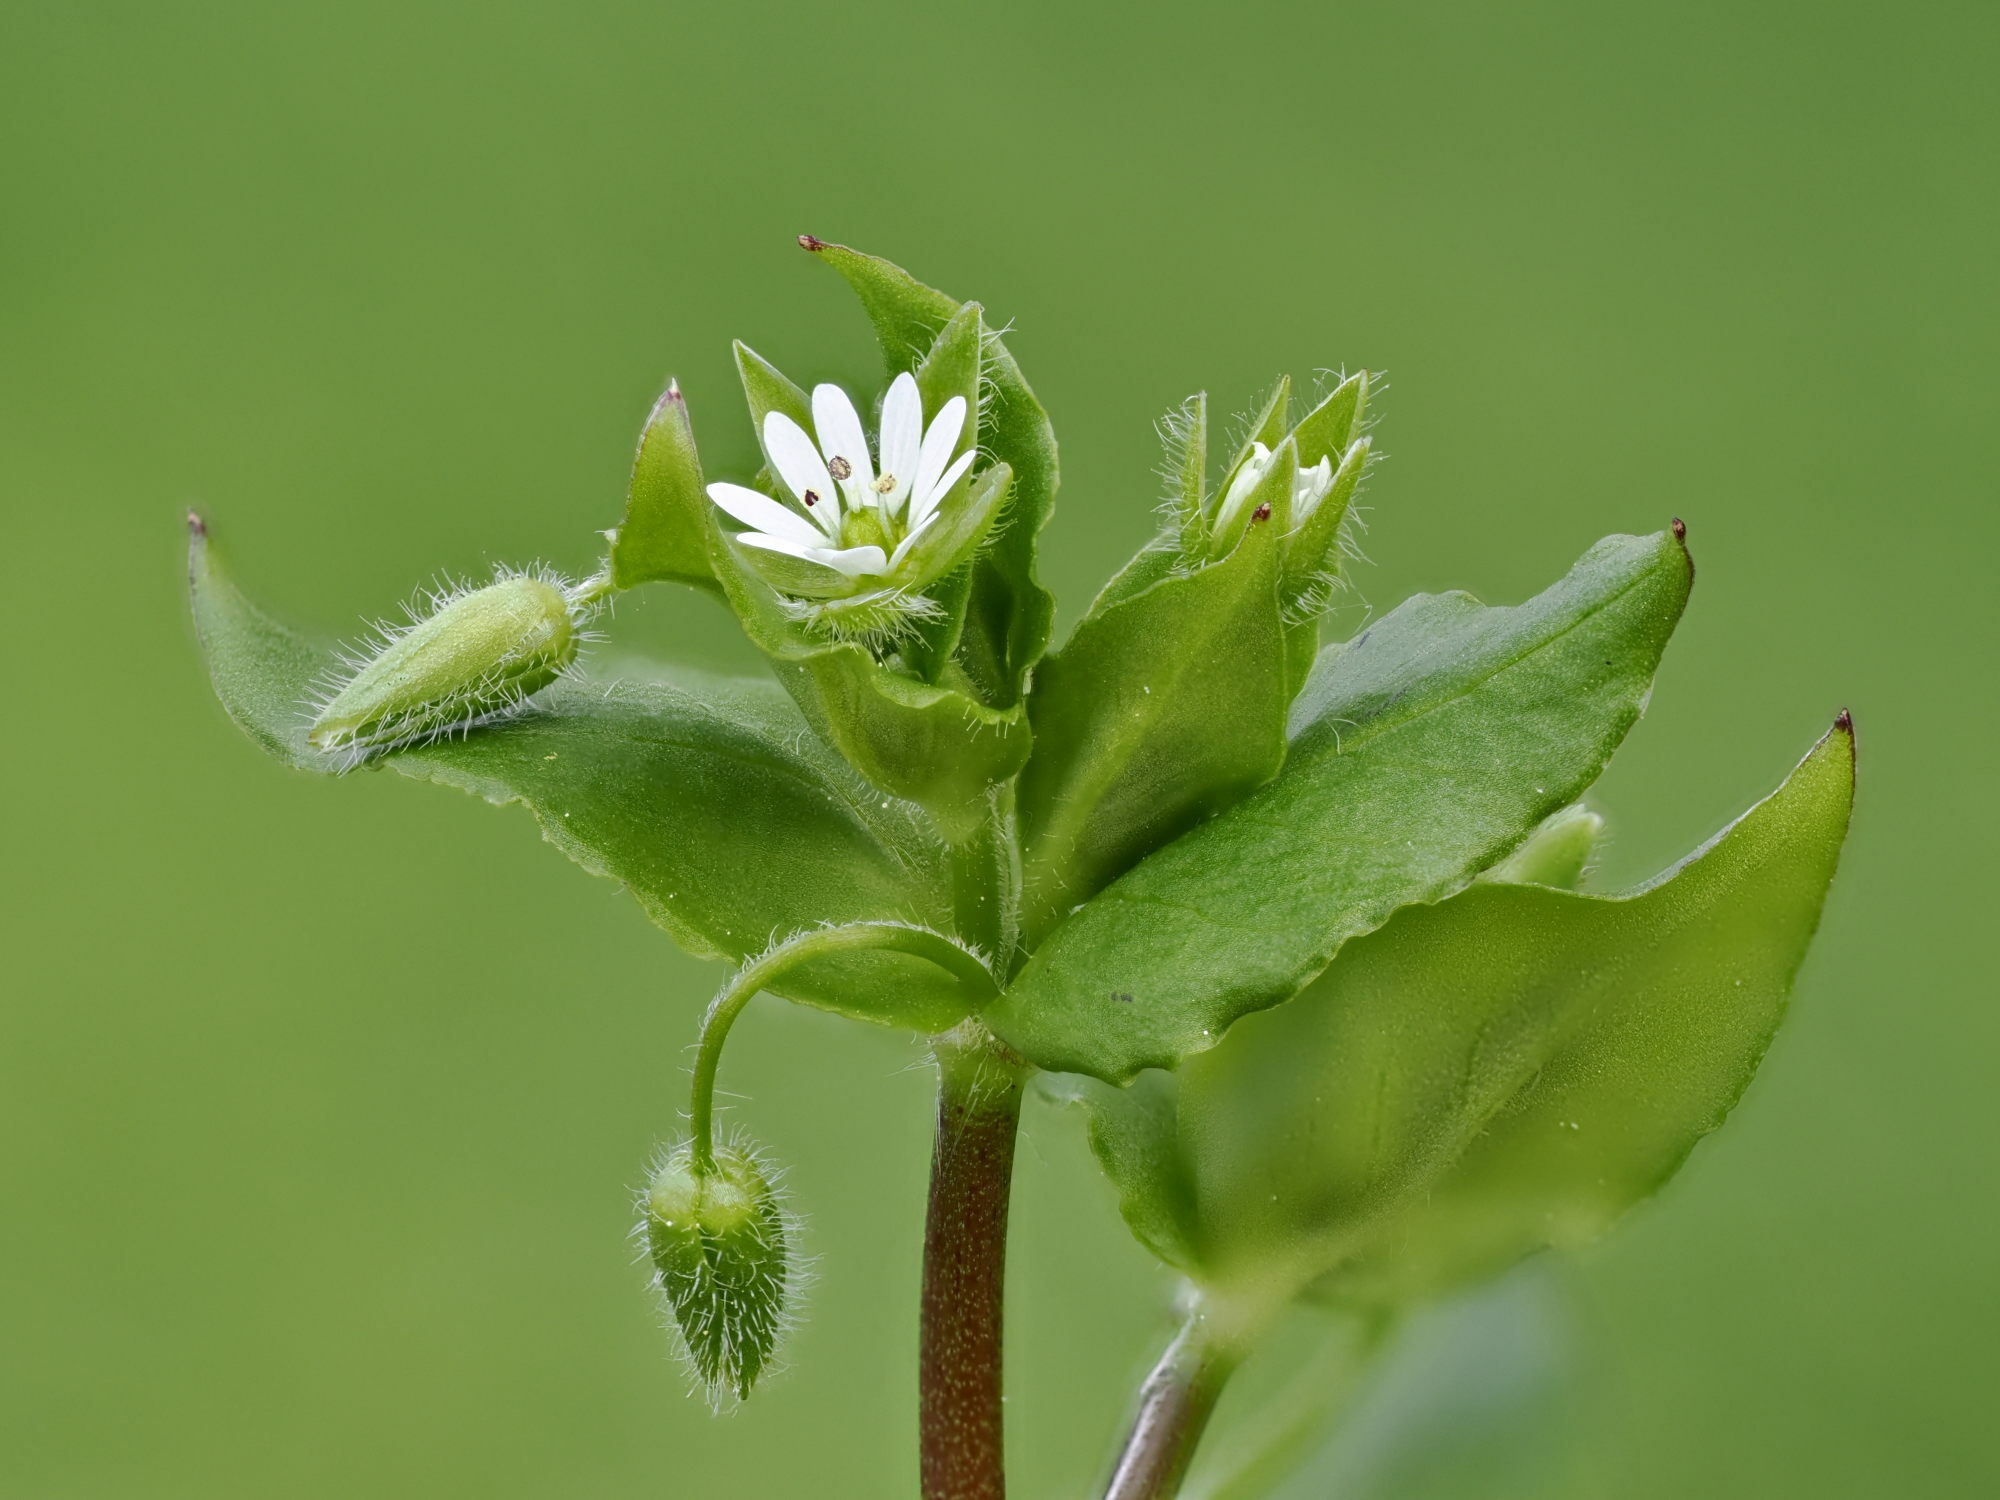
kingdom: Plantae
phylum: Tracheophyta
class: Magnoliopsida
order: Caryophyllales
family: Caryophyllaceae
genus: Stellaria
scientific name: Stellaria
